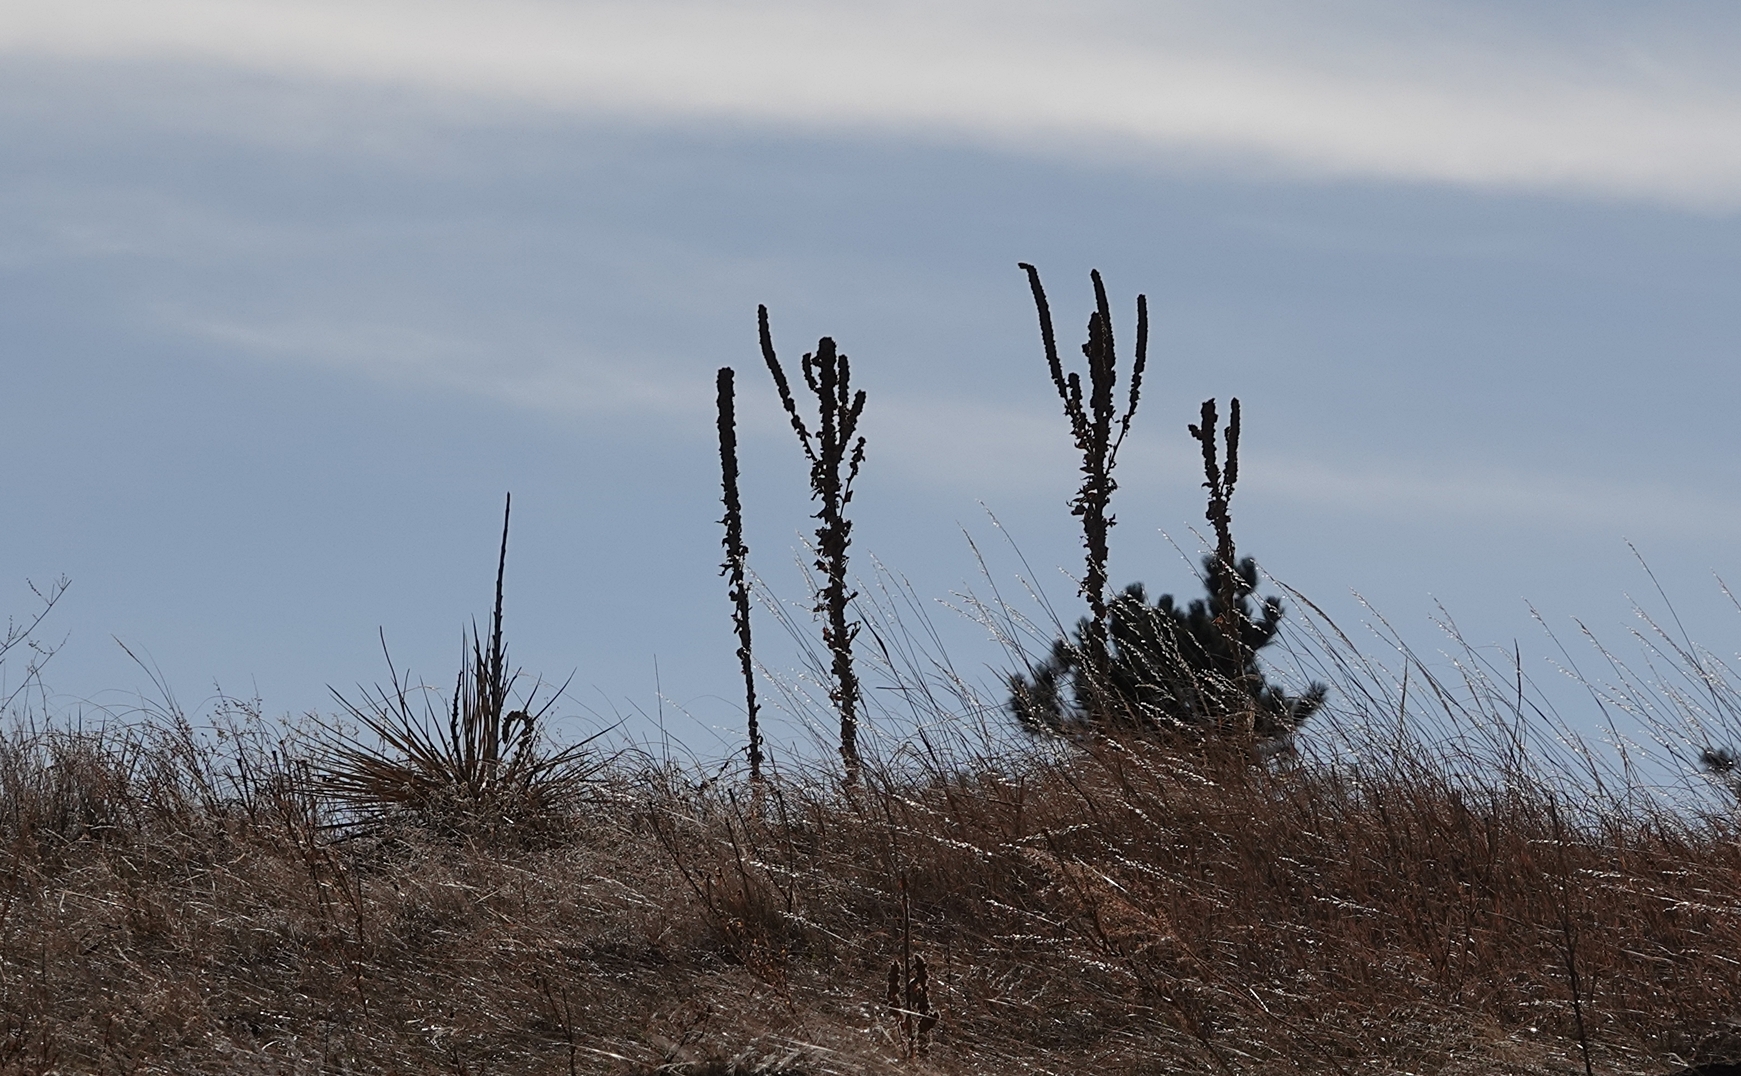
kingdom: Plantae
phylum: Tracheophyta
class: Magnoliopsida
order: Lamiales
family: Scrophulariaceae
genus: Verbascum
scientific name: Verbascum thapsus
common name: Common mullein
